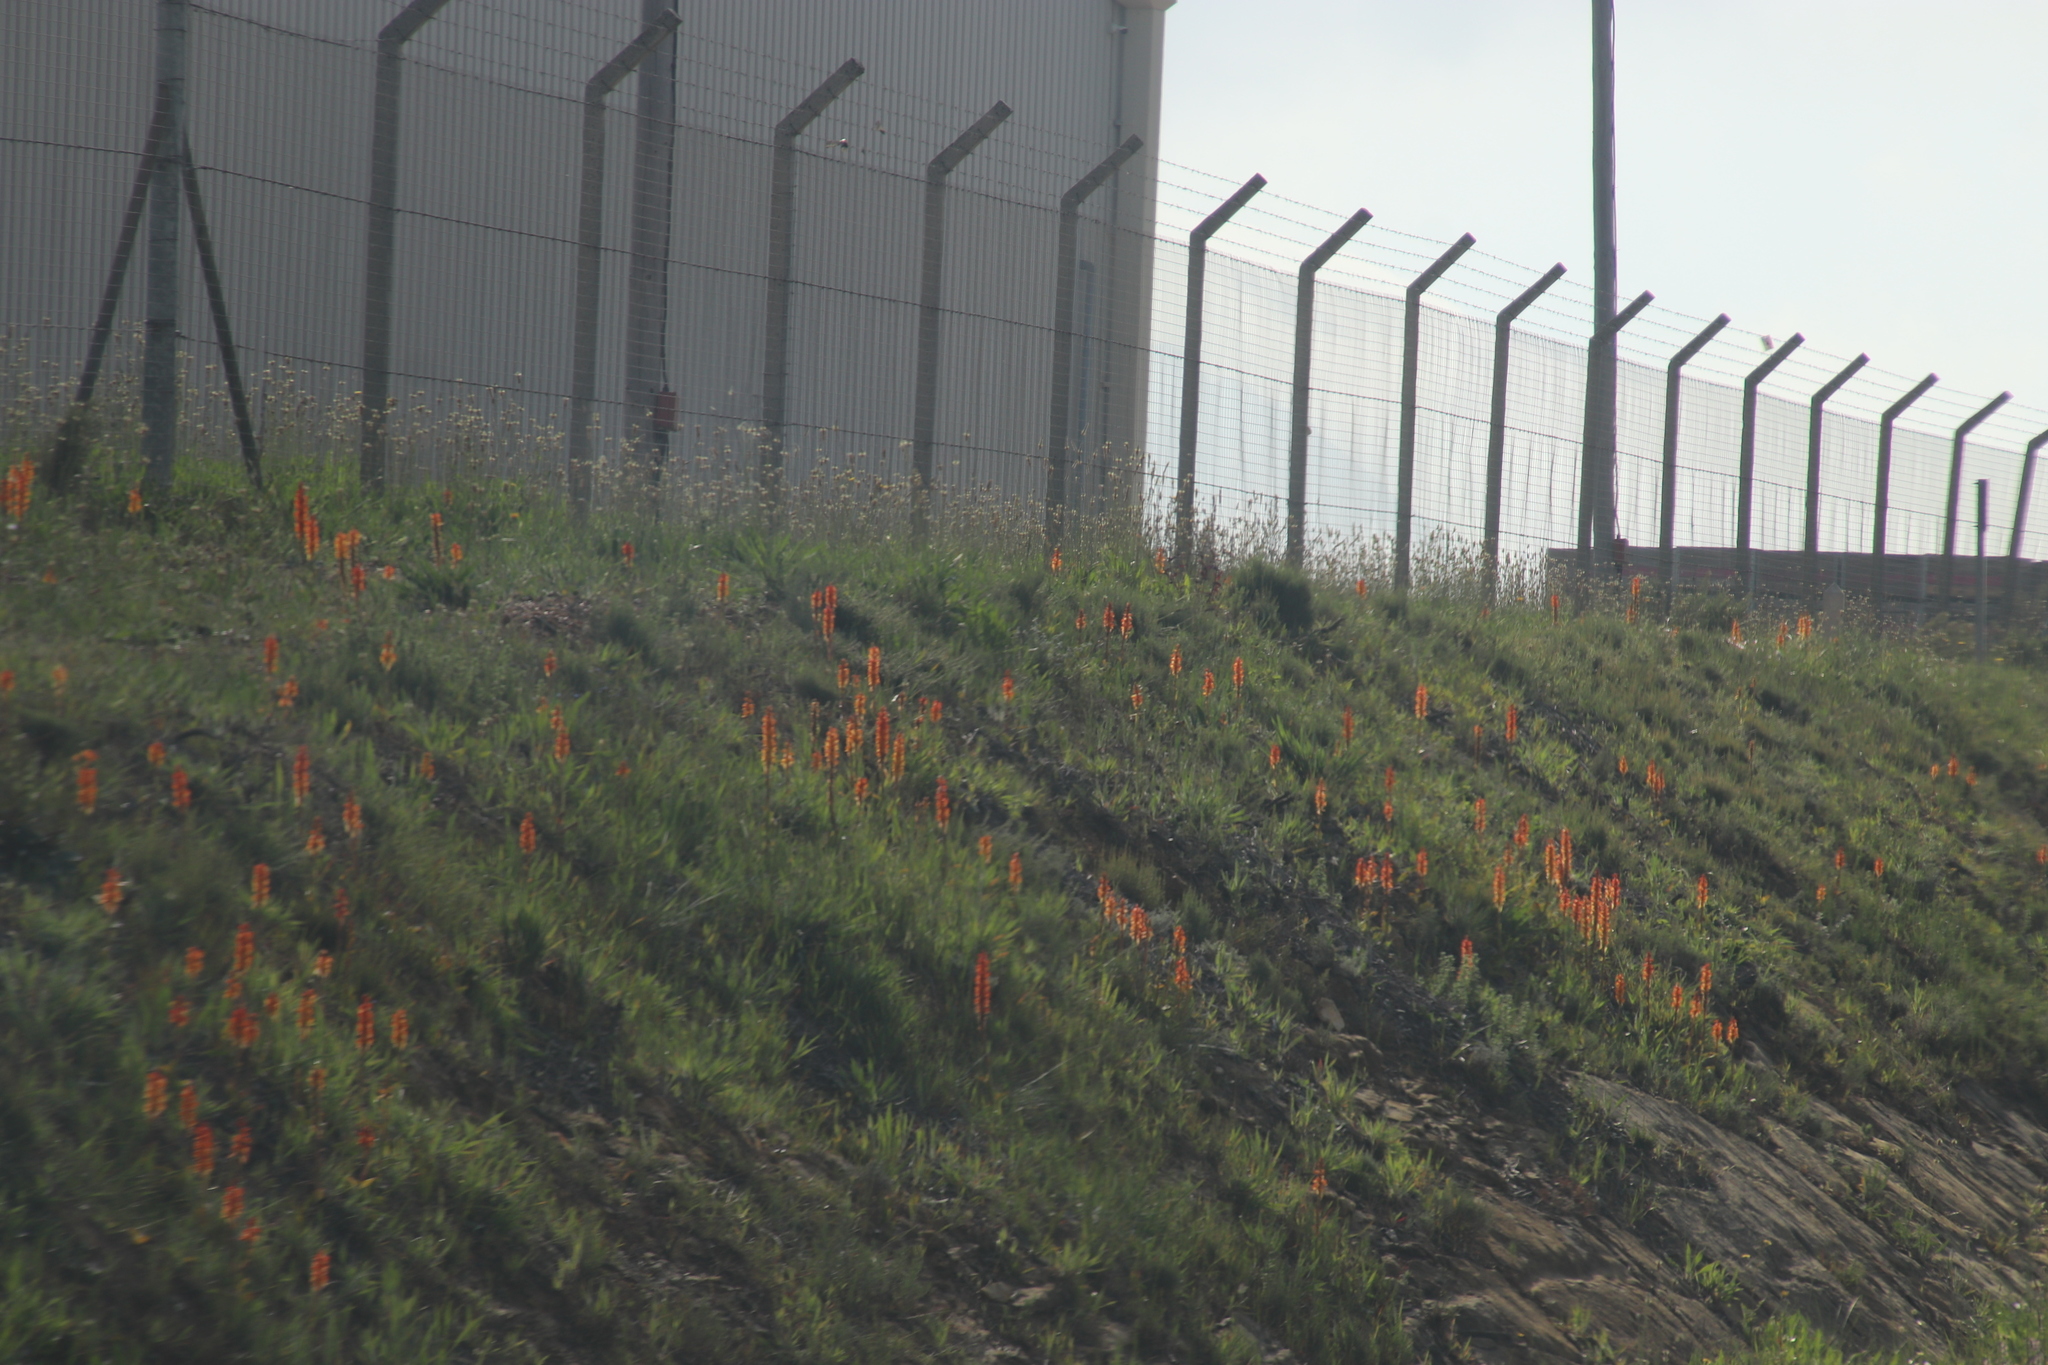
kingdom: Plantae
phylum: Tracheophyta
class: Liliopsida
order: Asparagales
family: Orchidaceae
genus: Satyrium
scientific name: Satyrium coriifolium
